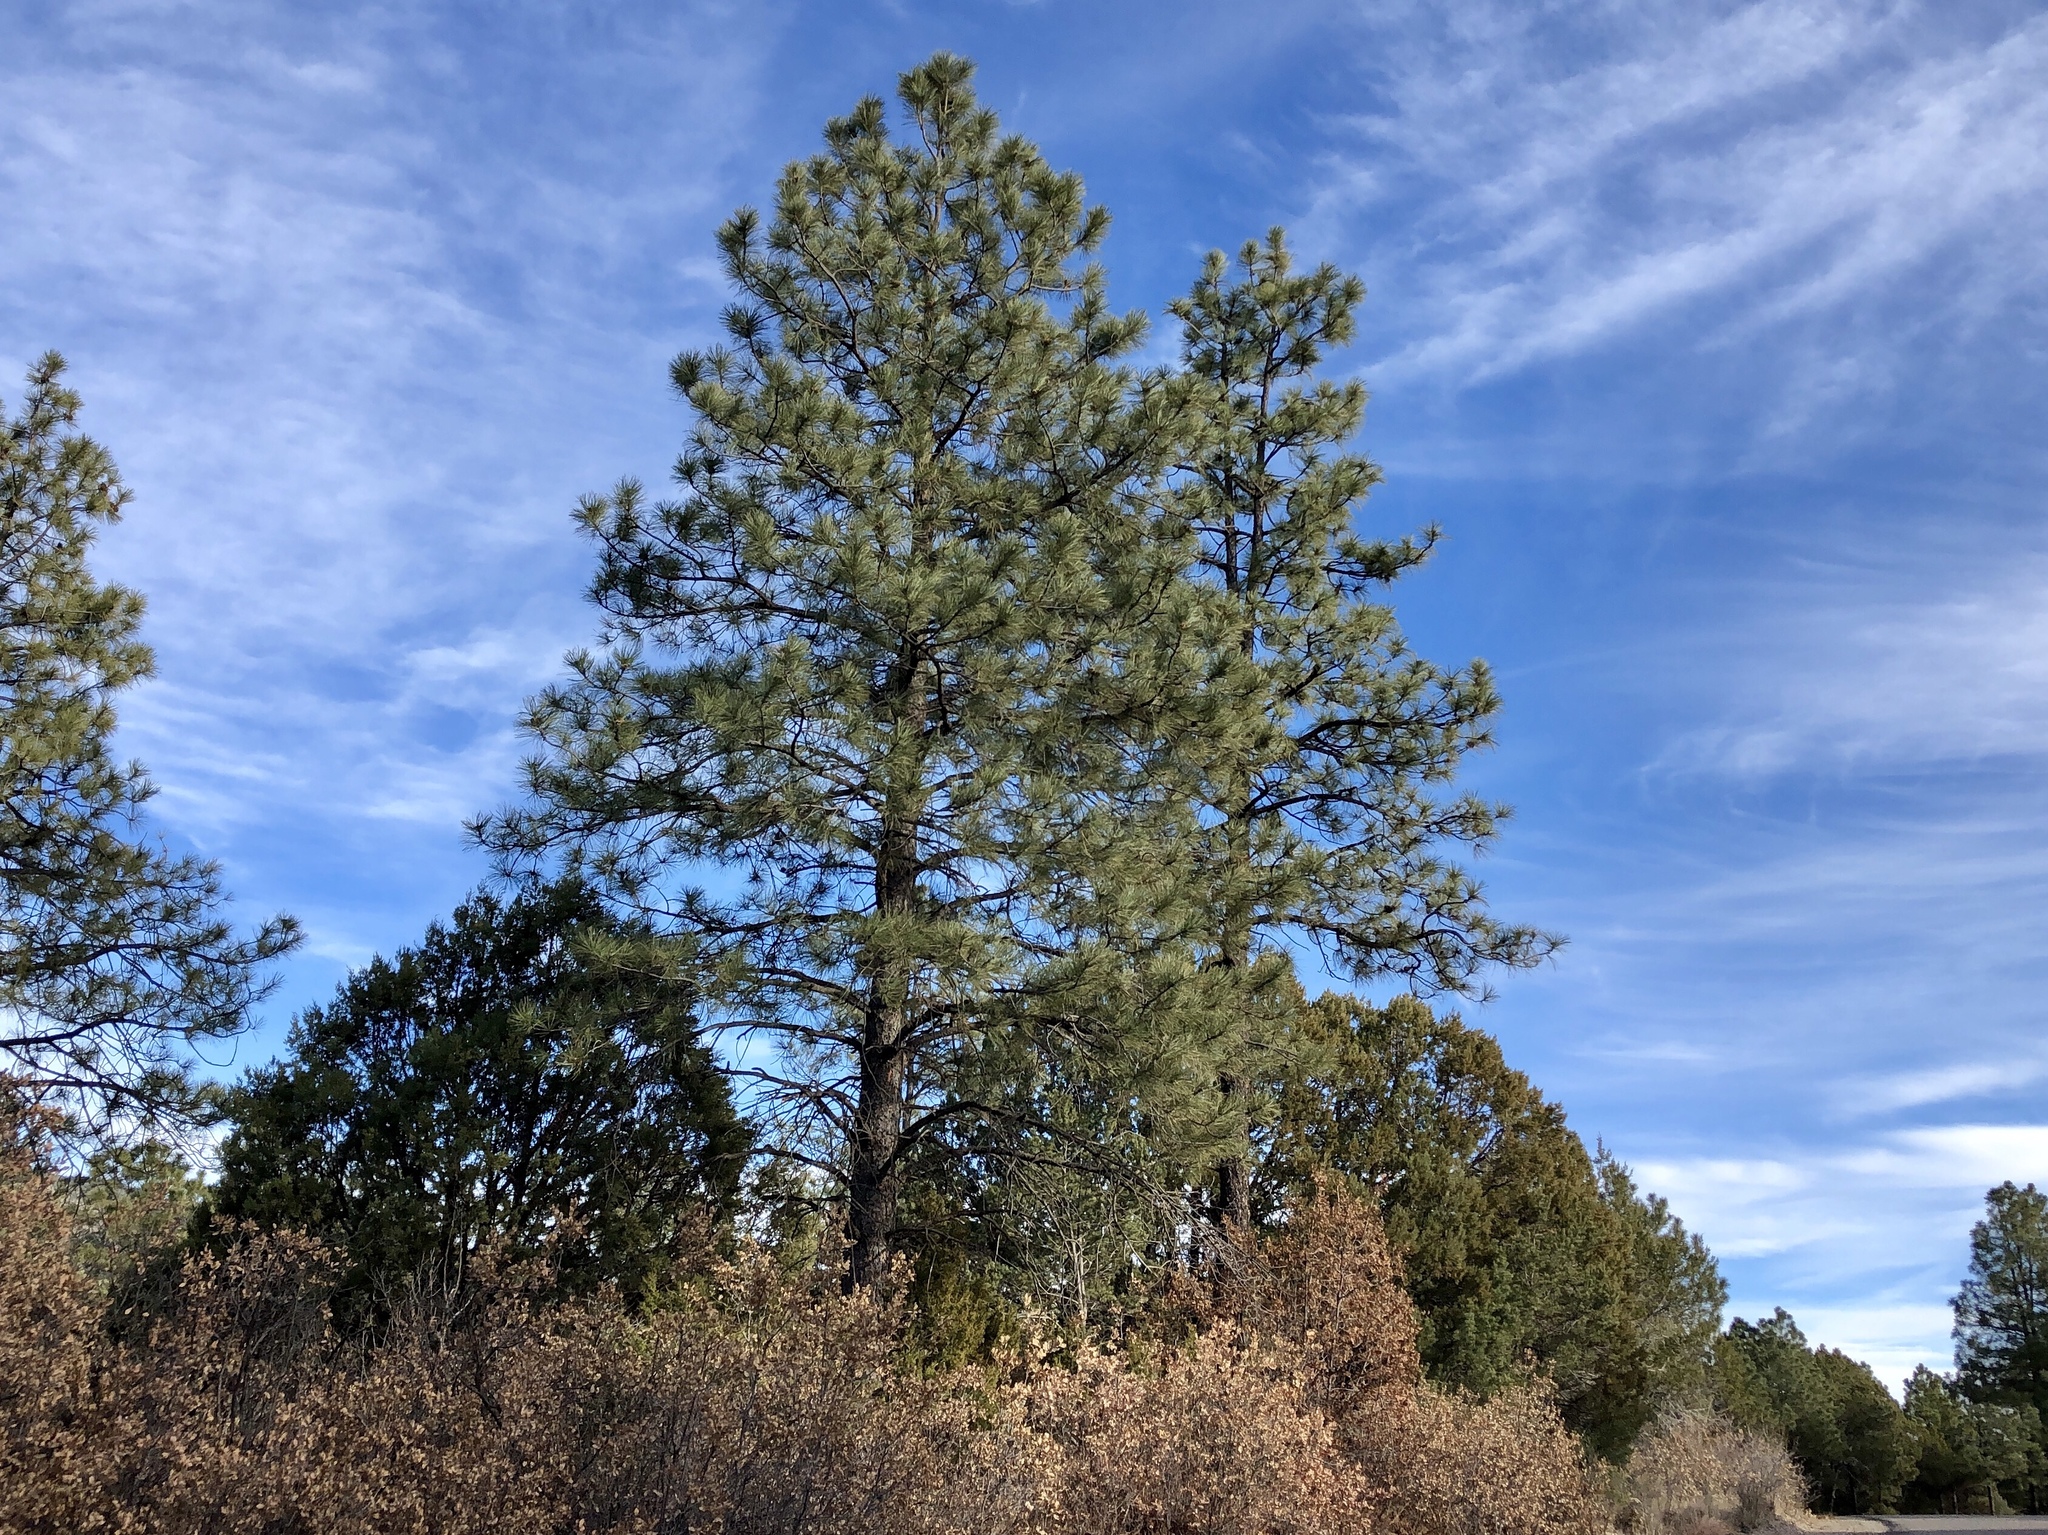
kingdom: Plantae
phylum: Tracheophyta
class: Pinopsida
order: Pinales
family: Pinaceae
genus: Pinus
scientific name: Pinus ponderosa
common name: Western yellow-pine
